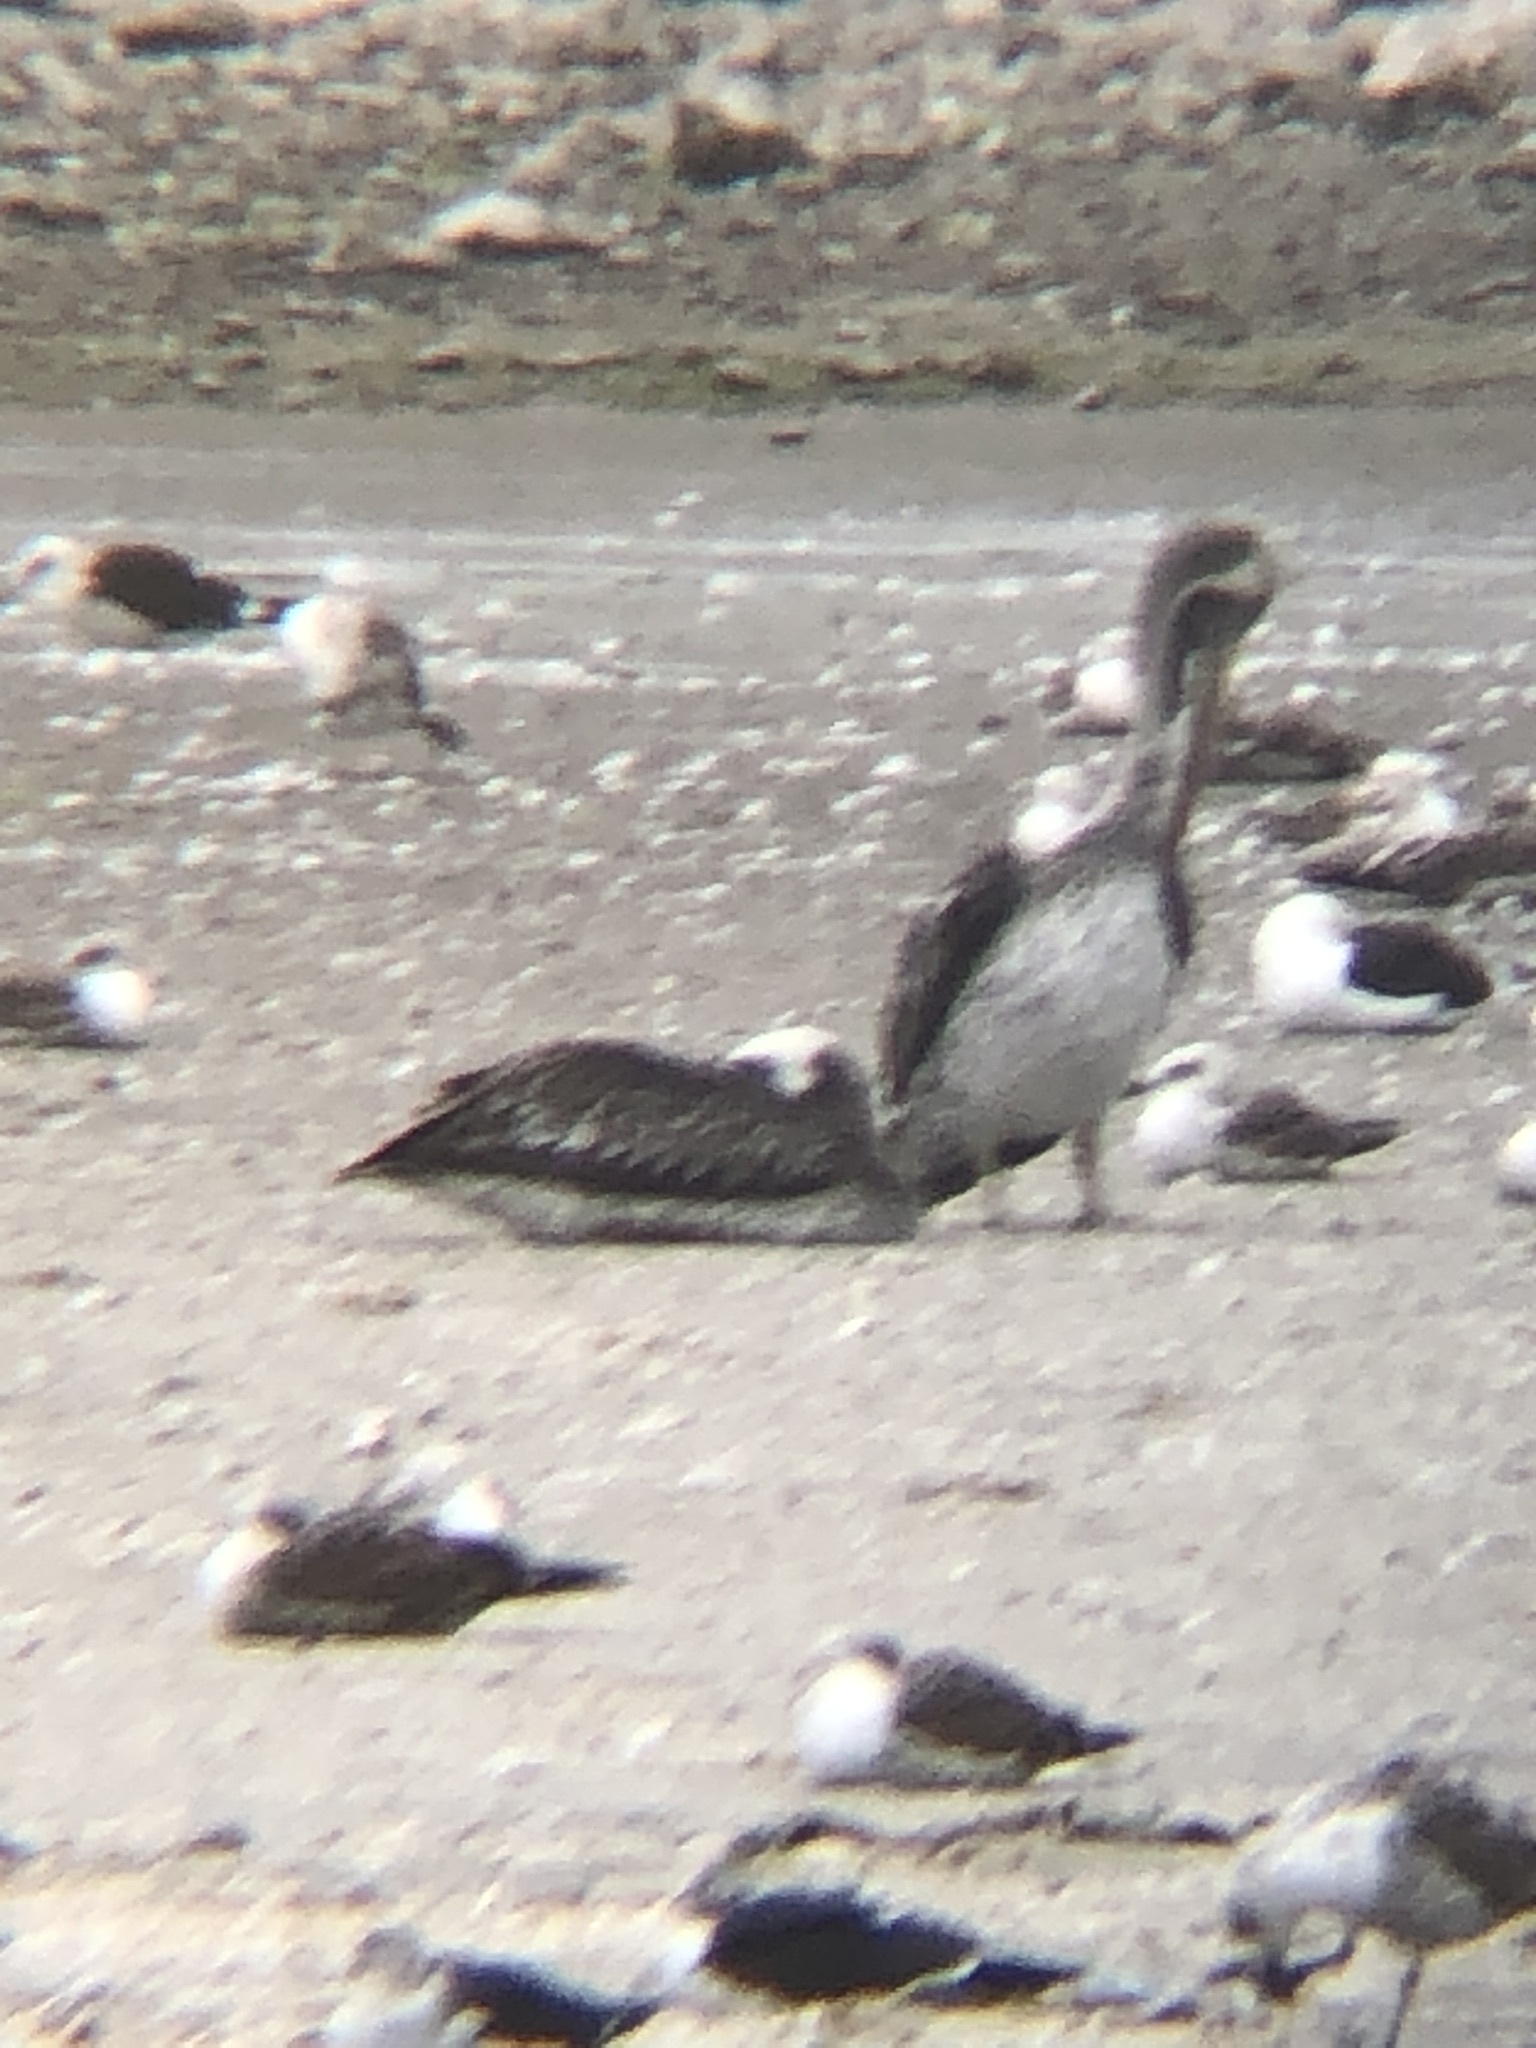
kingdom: Animalia
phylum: Chordata
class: Aves
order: Pelecaniformes
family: Pelecanidae
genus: Pelecanus
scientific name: Pelecanus thagus
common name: Peruvian pelican
